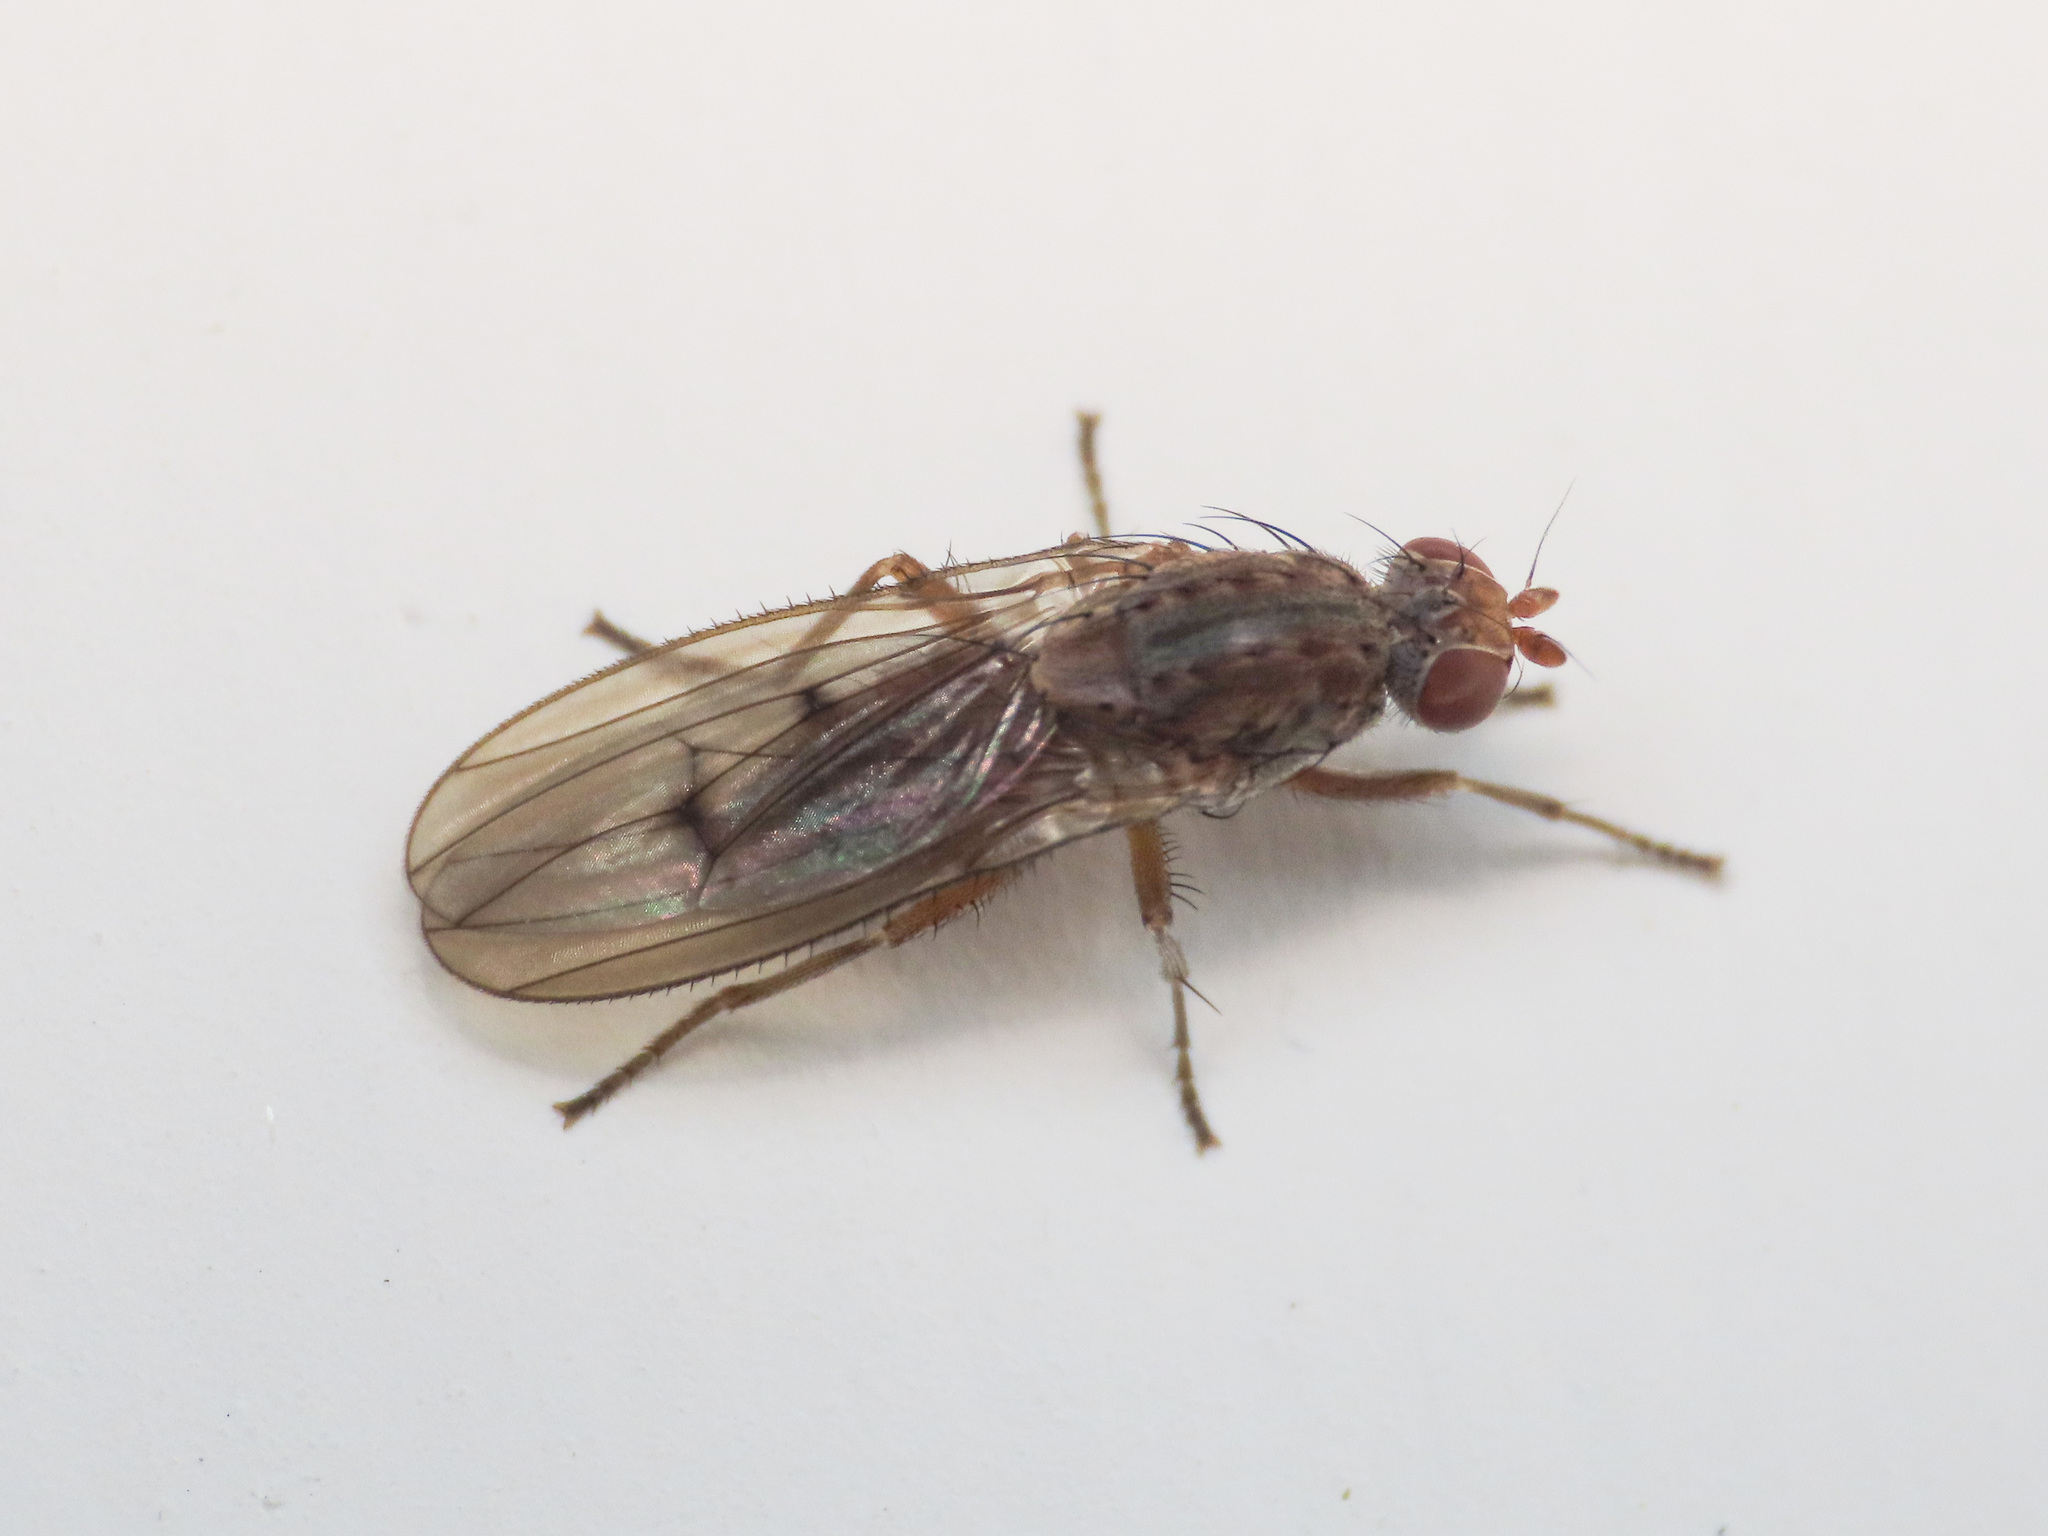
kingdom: Animalia
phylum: Arthropoda
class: Insecta
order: Diptera
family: Heleomyzidae
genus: Suillia
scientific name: Suillia humilis
